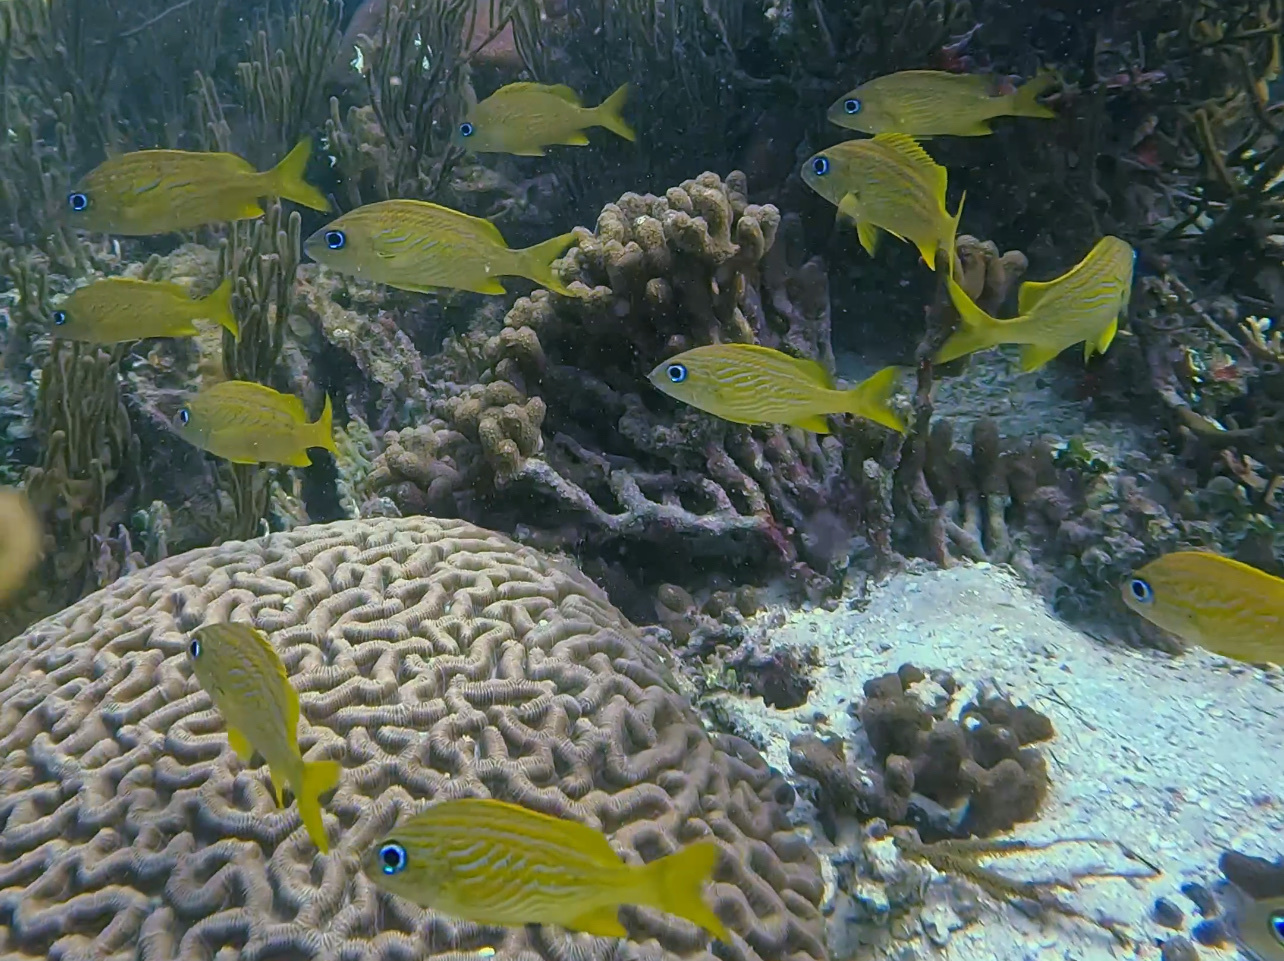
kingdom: Animalia
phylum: Chordata
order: Perciformes
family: Haemulidae
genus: Haemulon
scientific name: Haemulon flavolineatum
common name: French grunt
